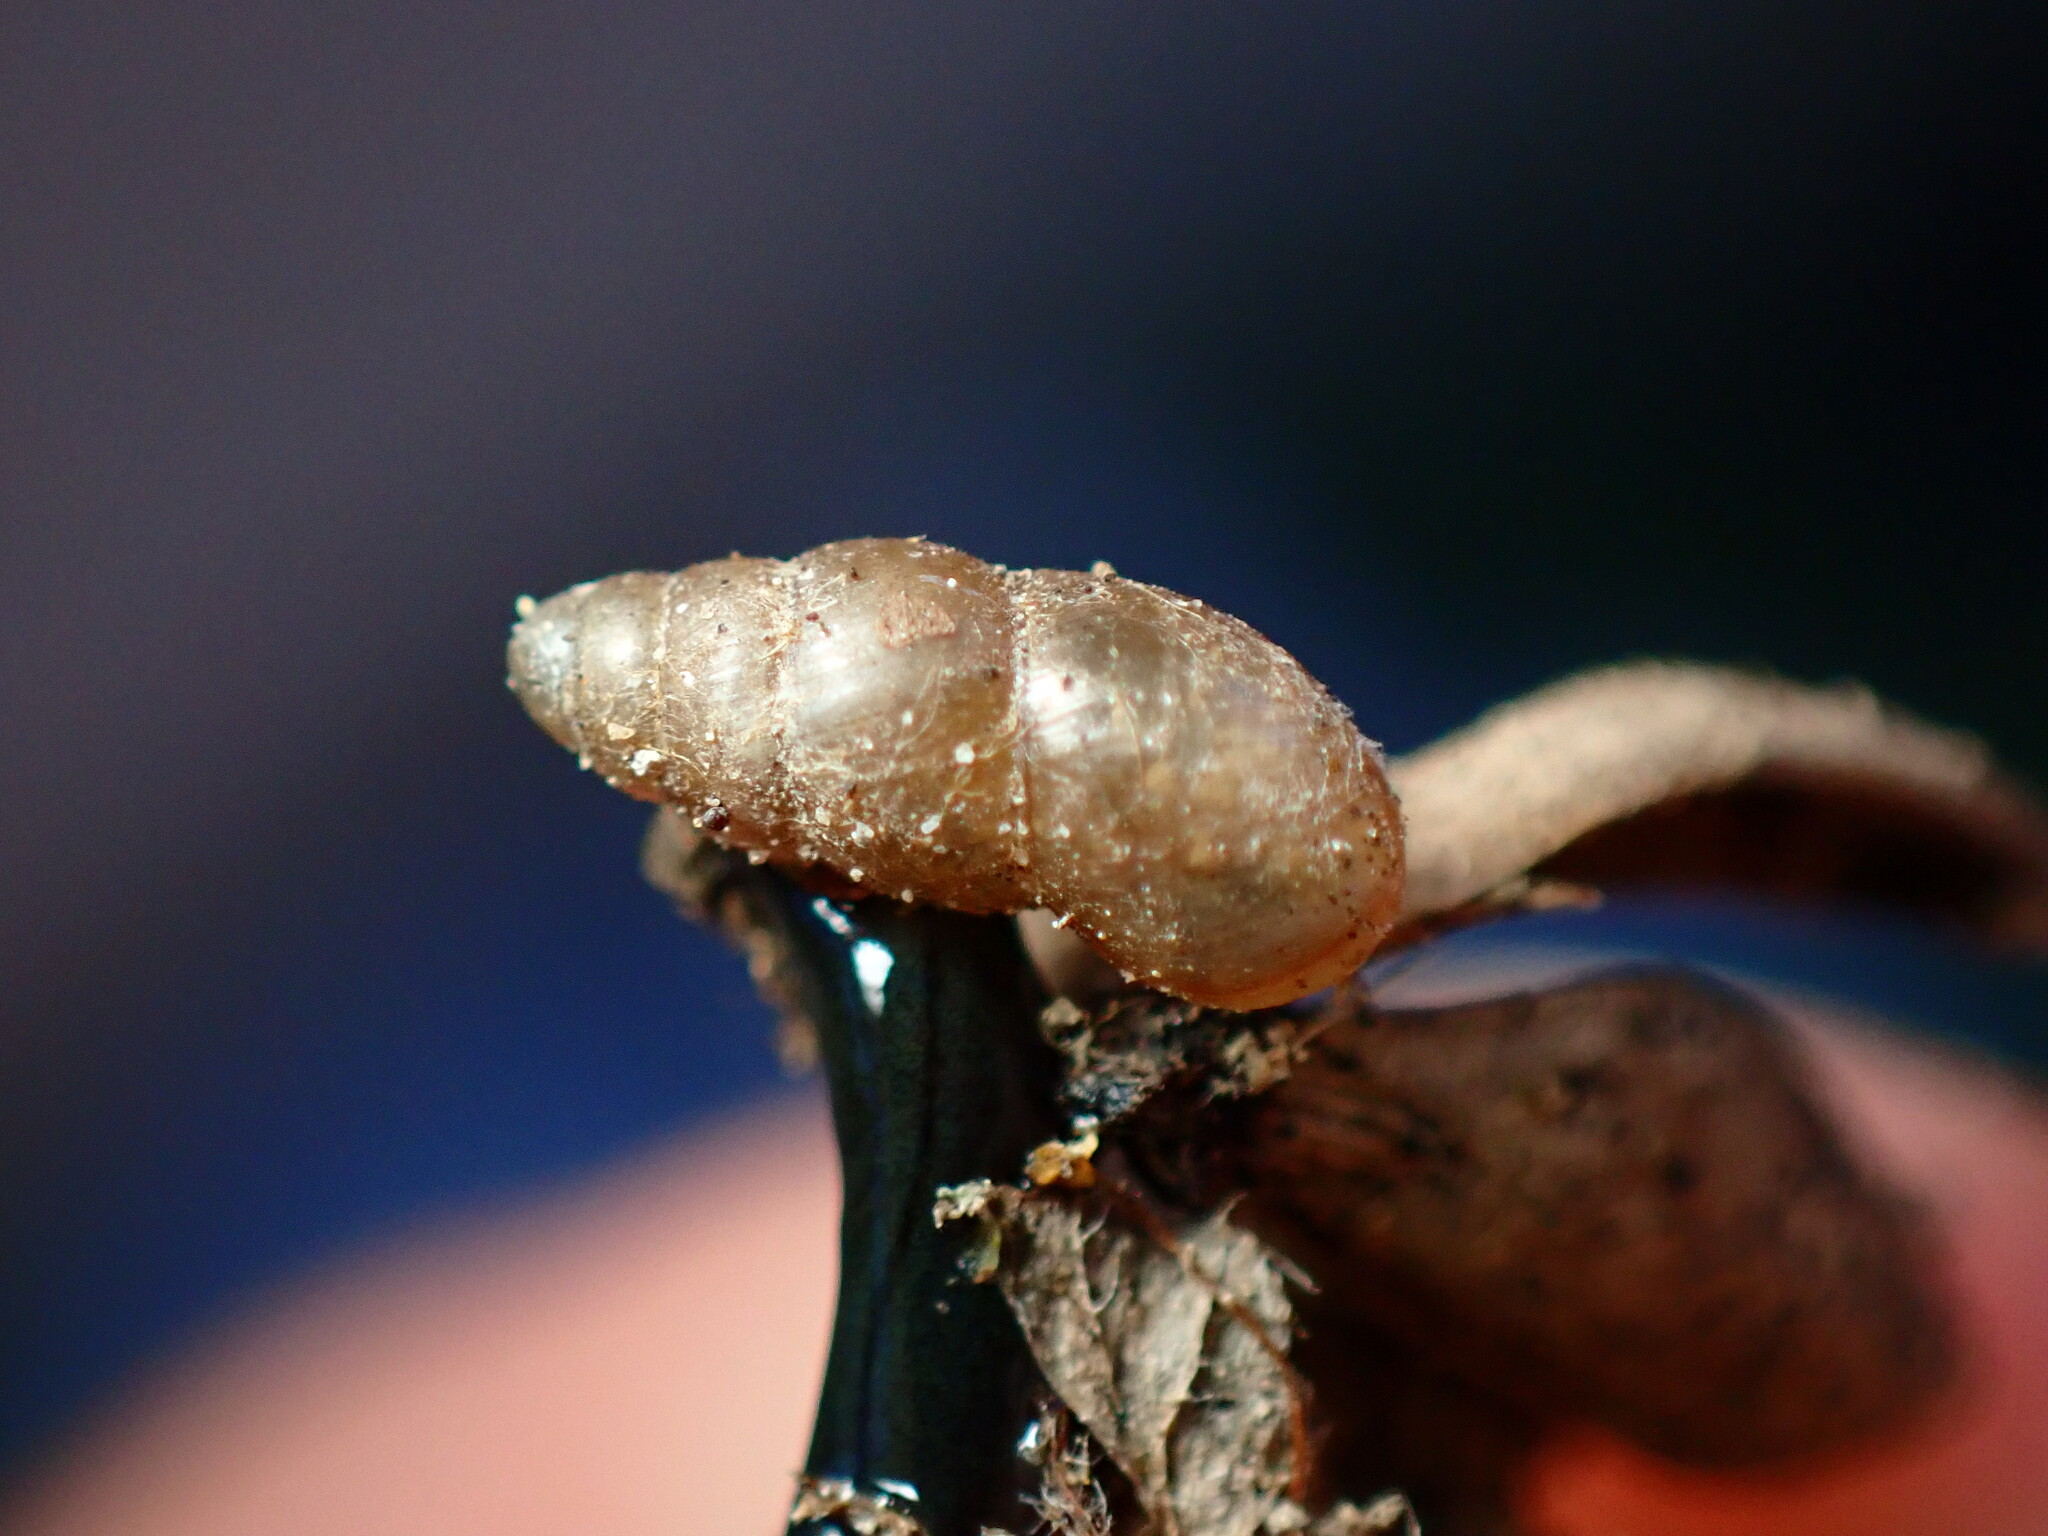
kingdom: Animalia
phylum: Mollusca
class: Gastropoda
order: Stylommatophora
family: Cochlicopidae
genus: Cochlicopa
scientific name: Cochlicopa lubrica
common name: Glossy pillar snail
